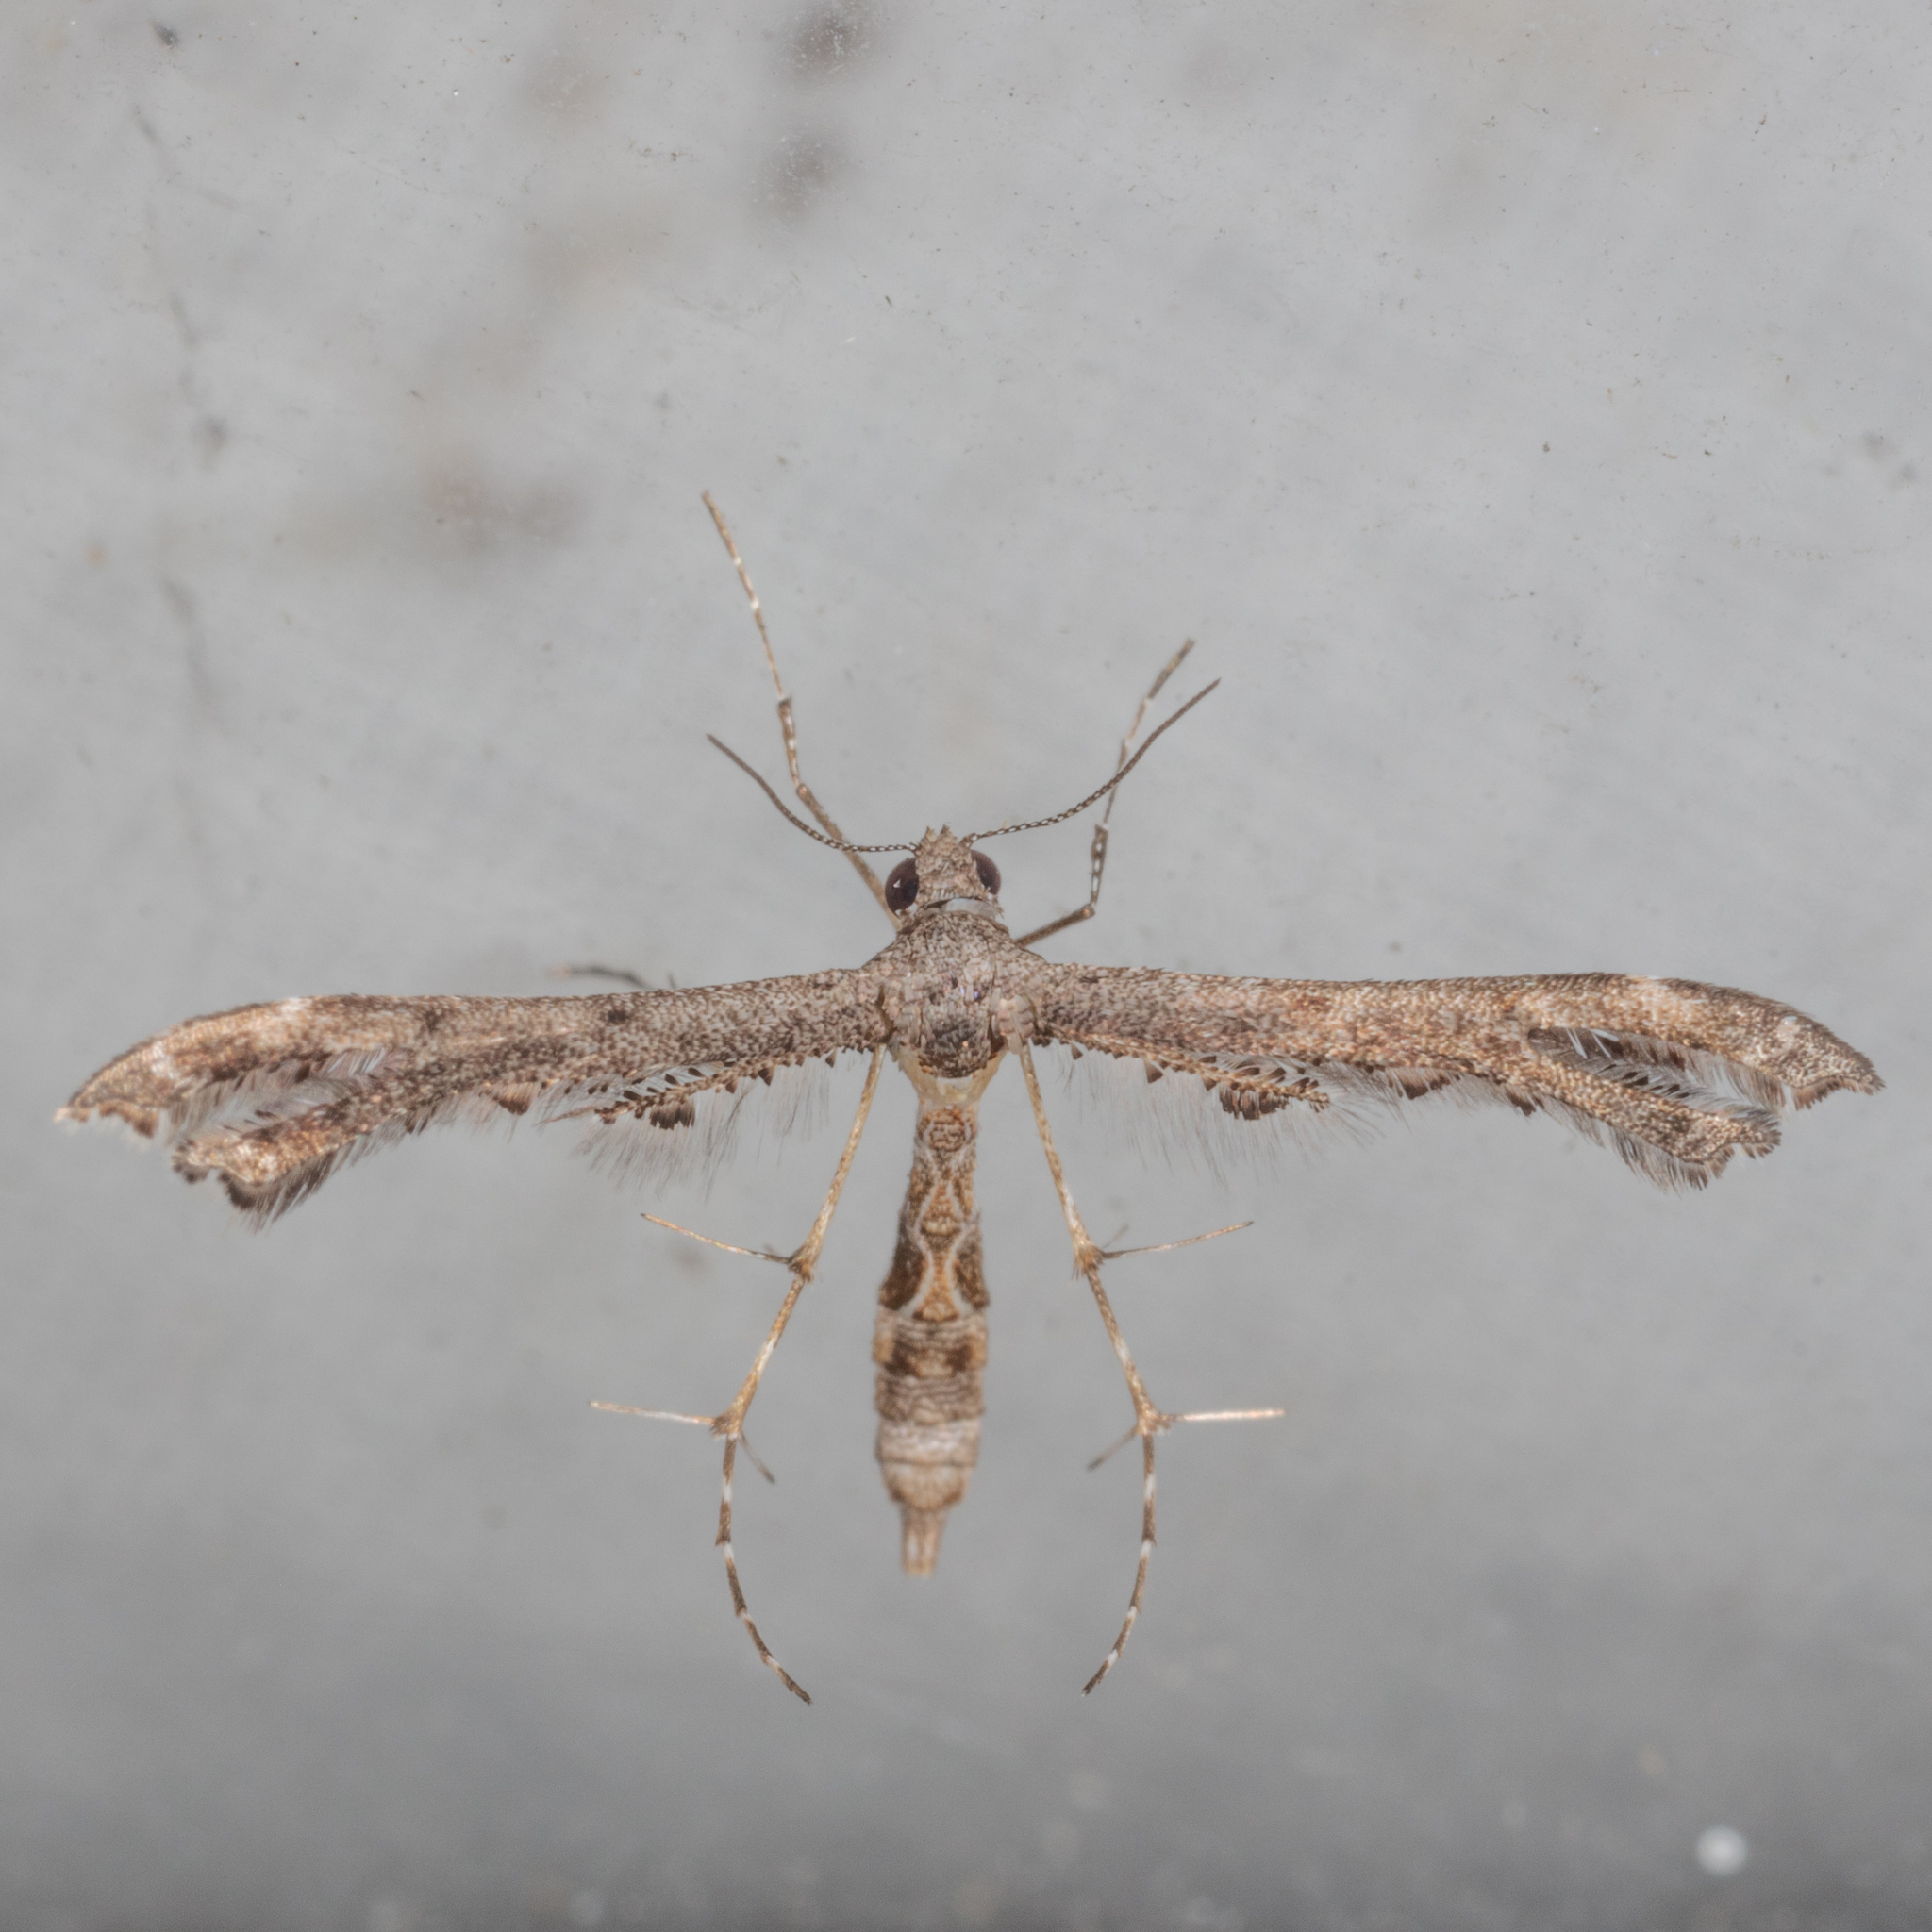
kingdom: Animalia
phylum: Arthropoda
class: Insecta
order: Lepidoptera
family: Pterophoridae
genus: Michaelophorus
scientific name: Michaelophorus indentatus
